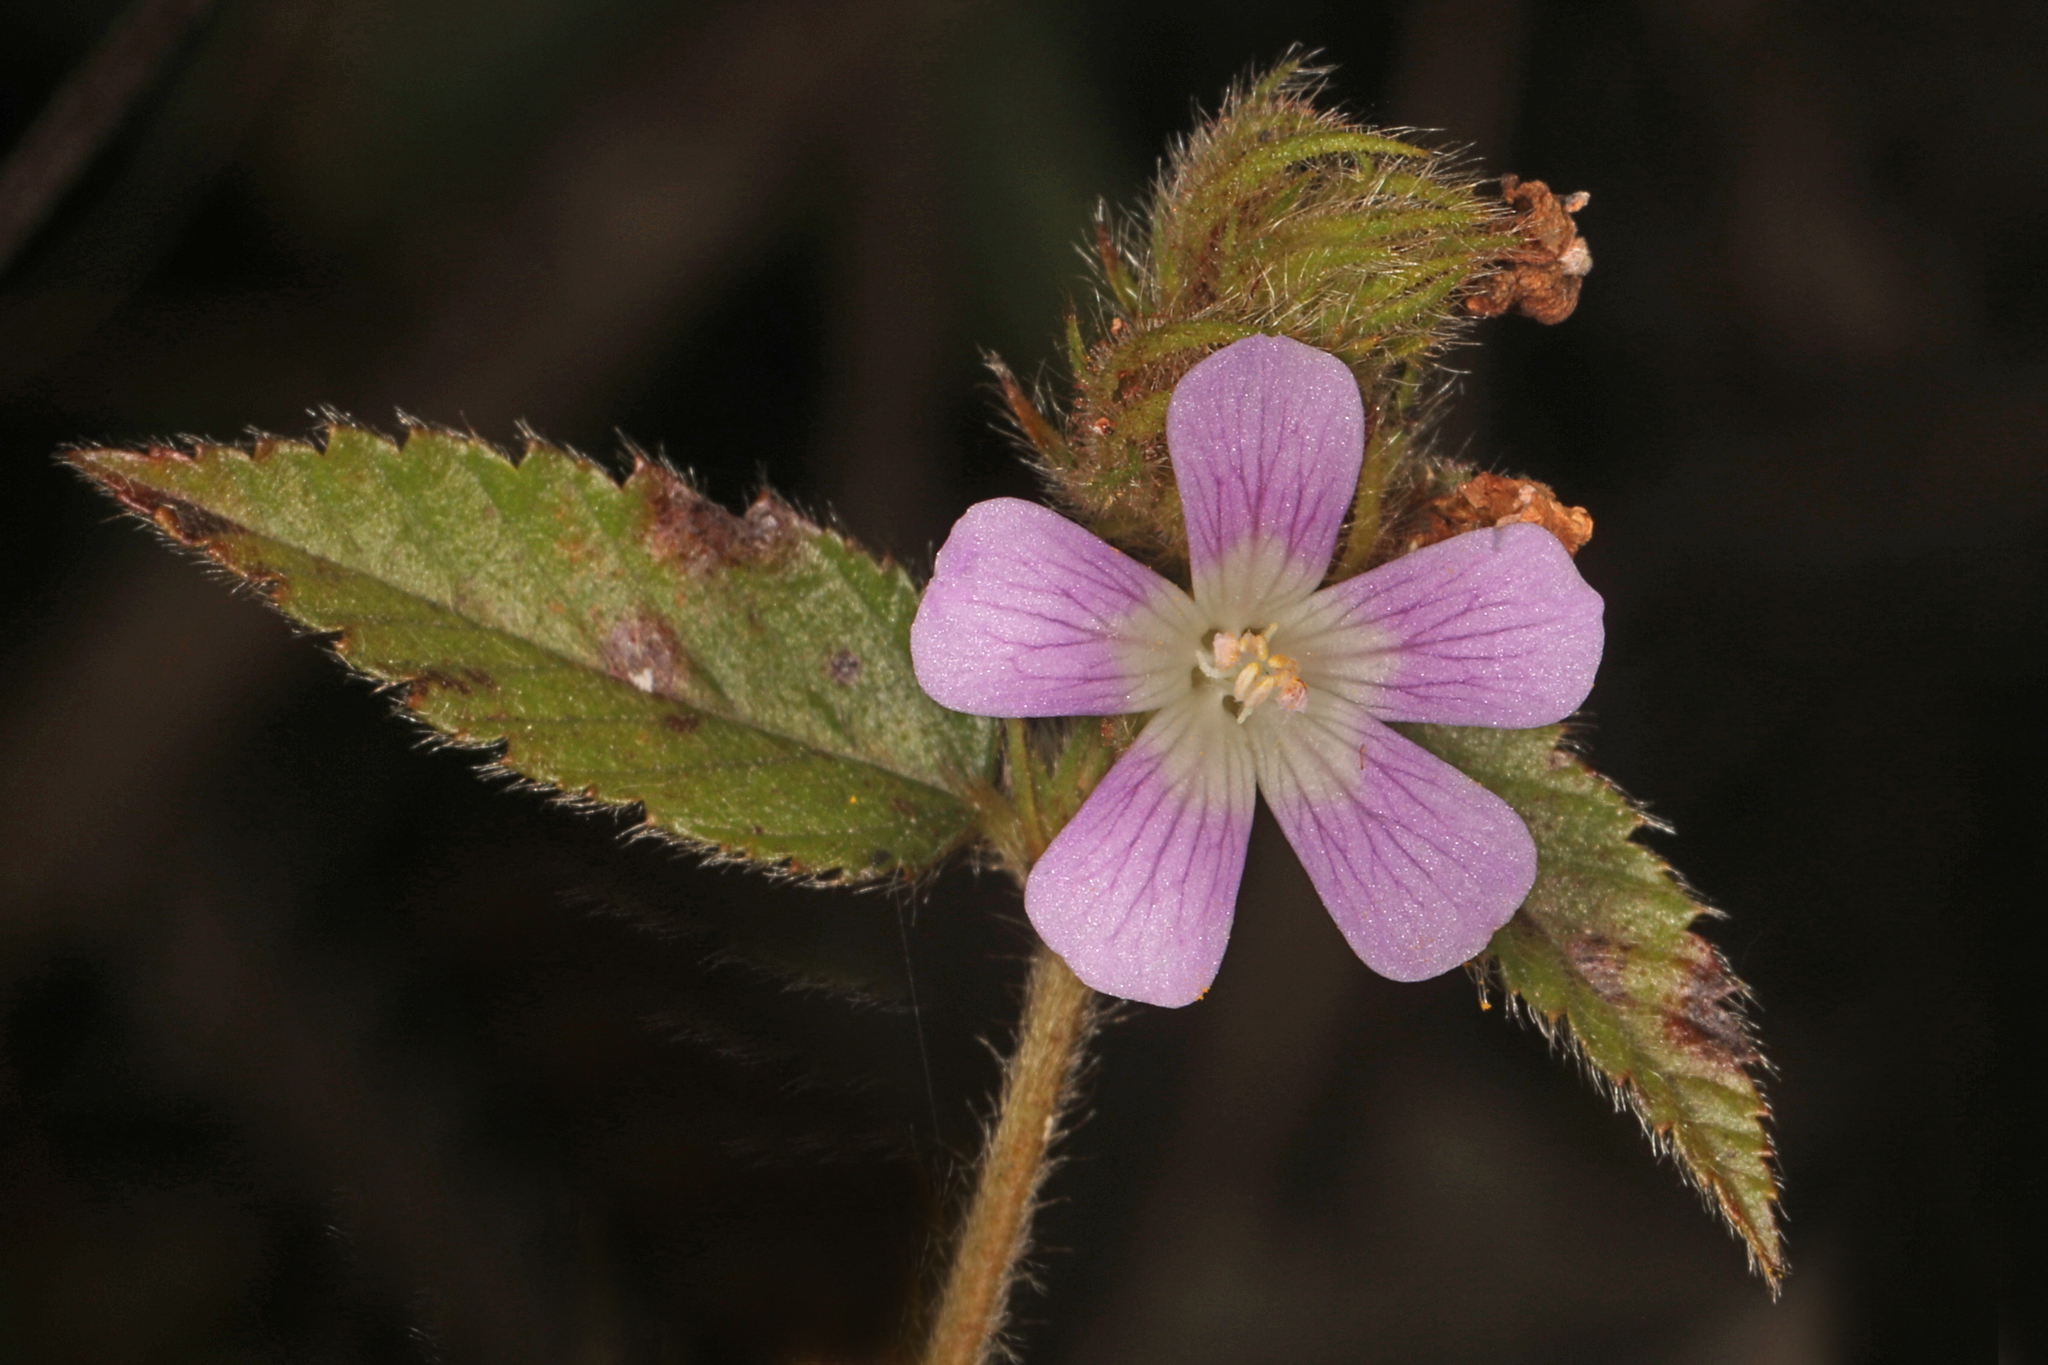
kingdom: Plantae
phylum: Tracheophyta
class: Magnoliopsida
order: Malvales
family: Malvaceae
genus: Melochia
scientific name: Melochia spicata
